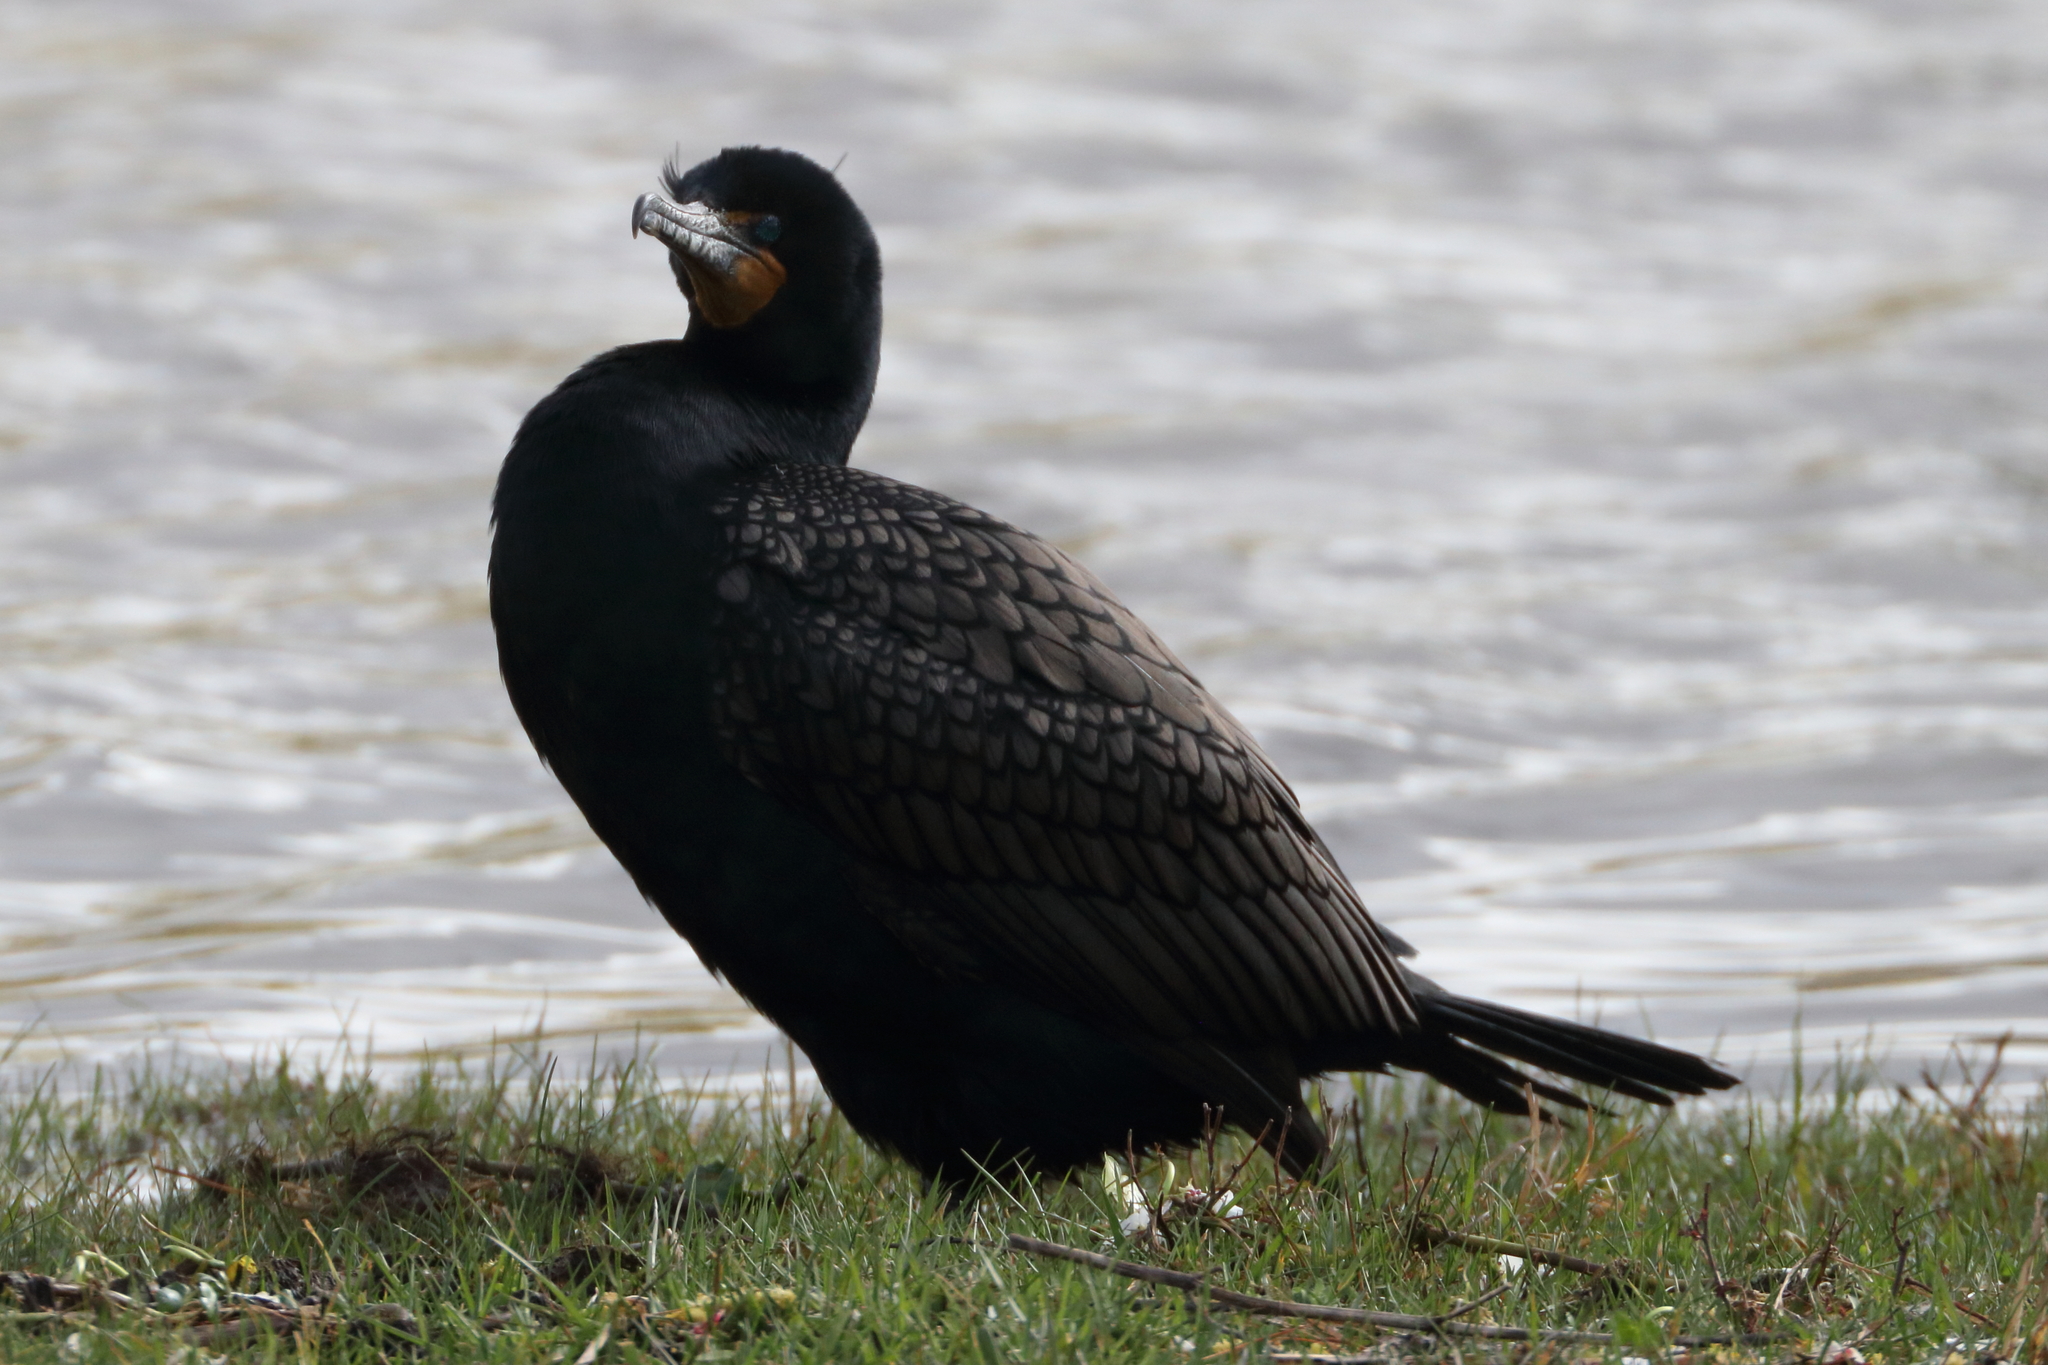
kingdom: Animalia
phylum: Chordata
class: Aves
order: Suliformes
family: Phalacrocoracidae
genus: Phalacrocorax
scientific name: Phalacrocorax auritus
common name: Double-crested cormorant
